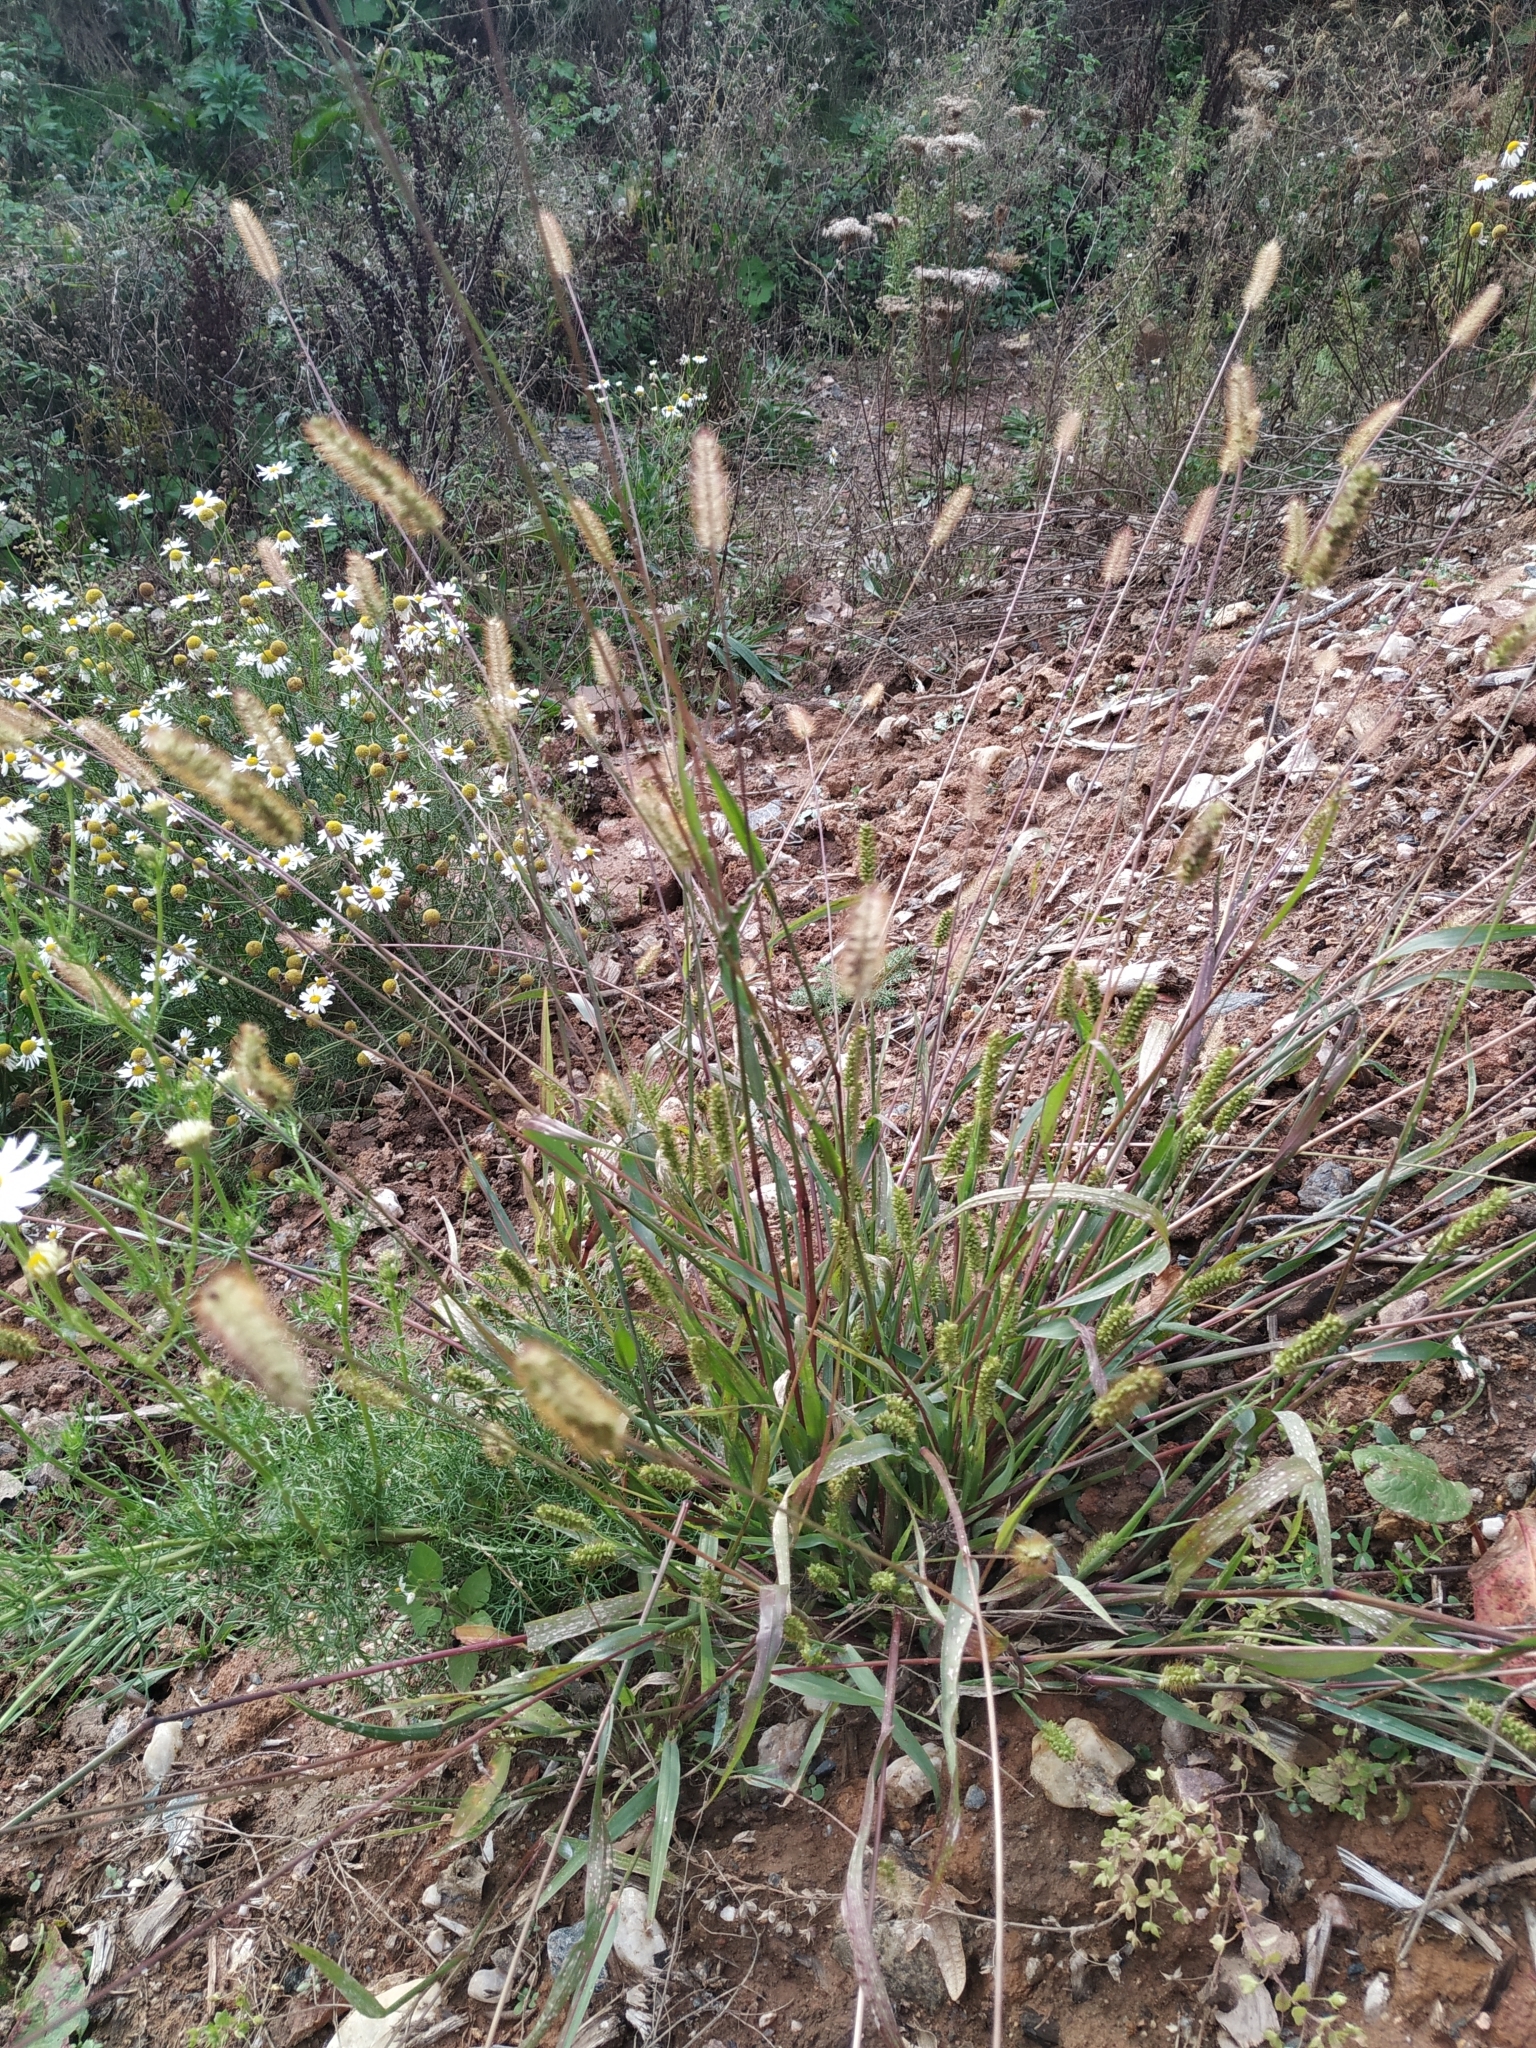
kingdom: Plantae
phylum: Tracheophyta
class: Liliopsida
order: Poales
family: Poaceae
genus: Setaria
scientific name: Setaria pumila
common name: Yellow bristle-grass
